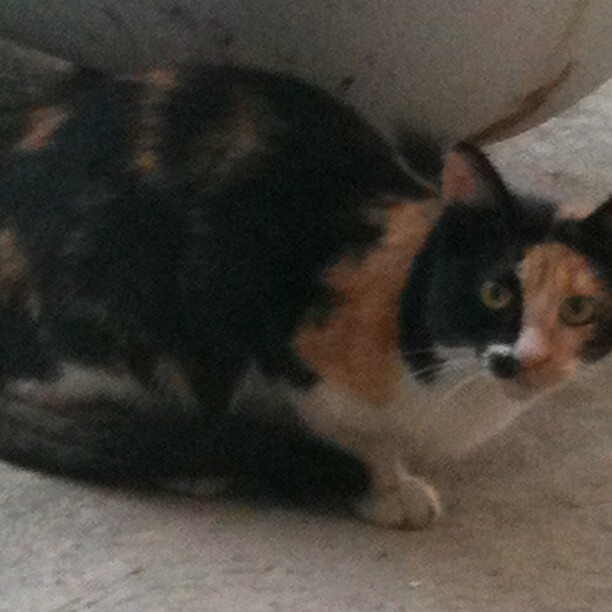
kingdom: Animalia
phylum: Chordata
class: Mammalia
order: Carnivora
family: Felidae
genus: Felis
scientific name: Felis catus
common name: Domestic cat
